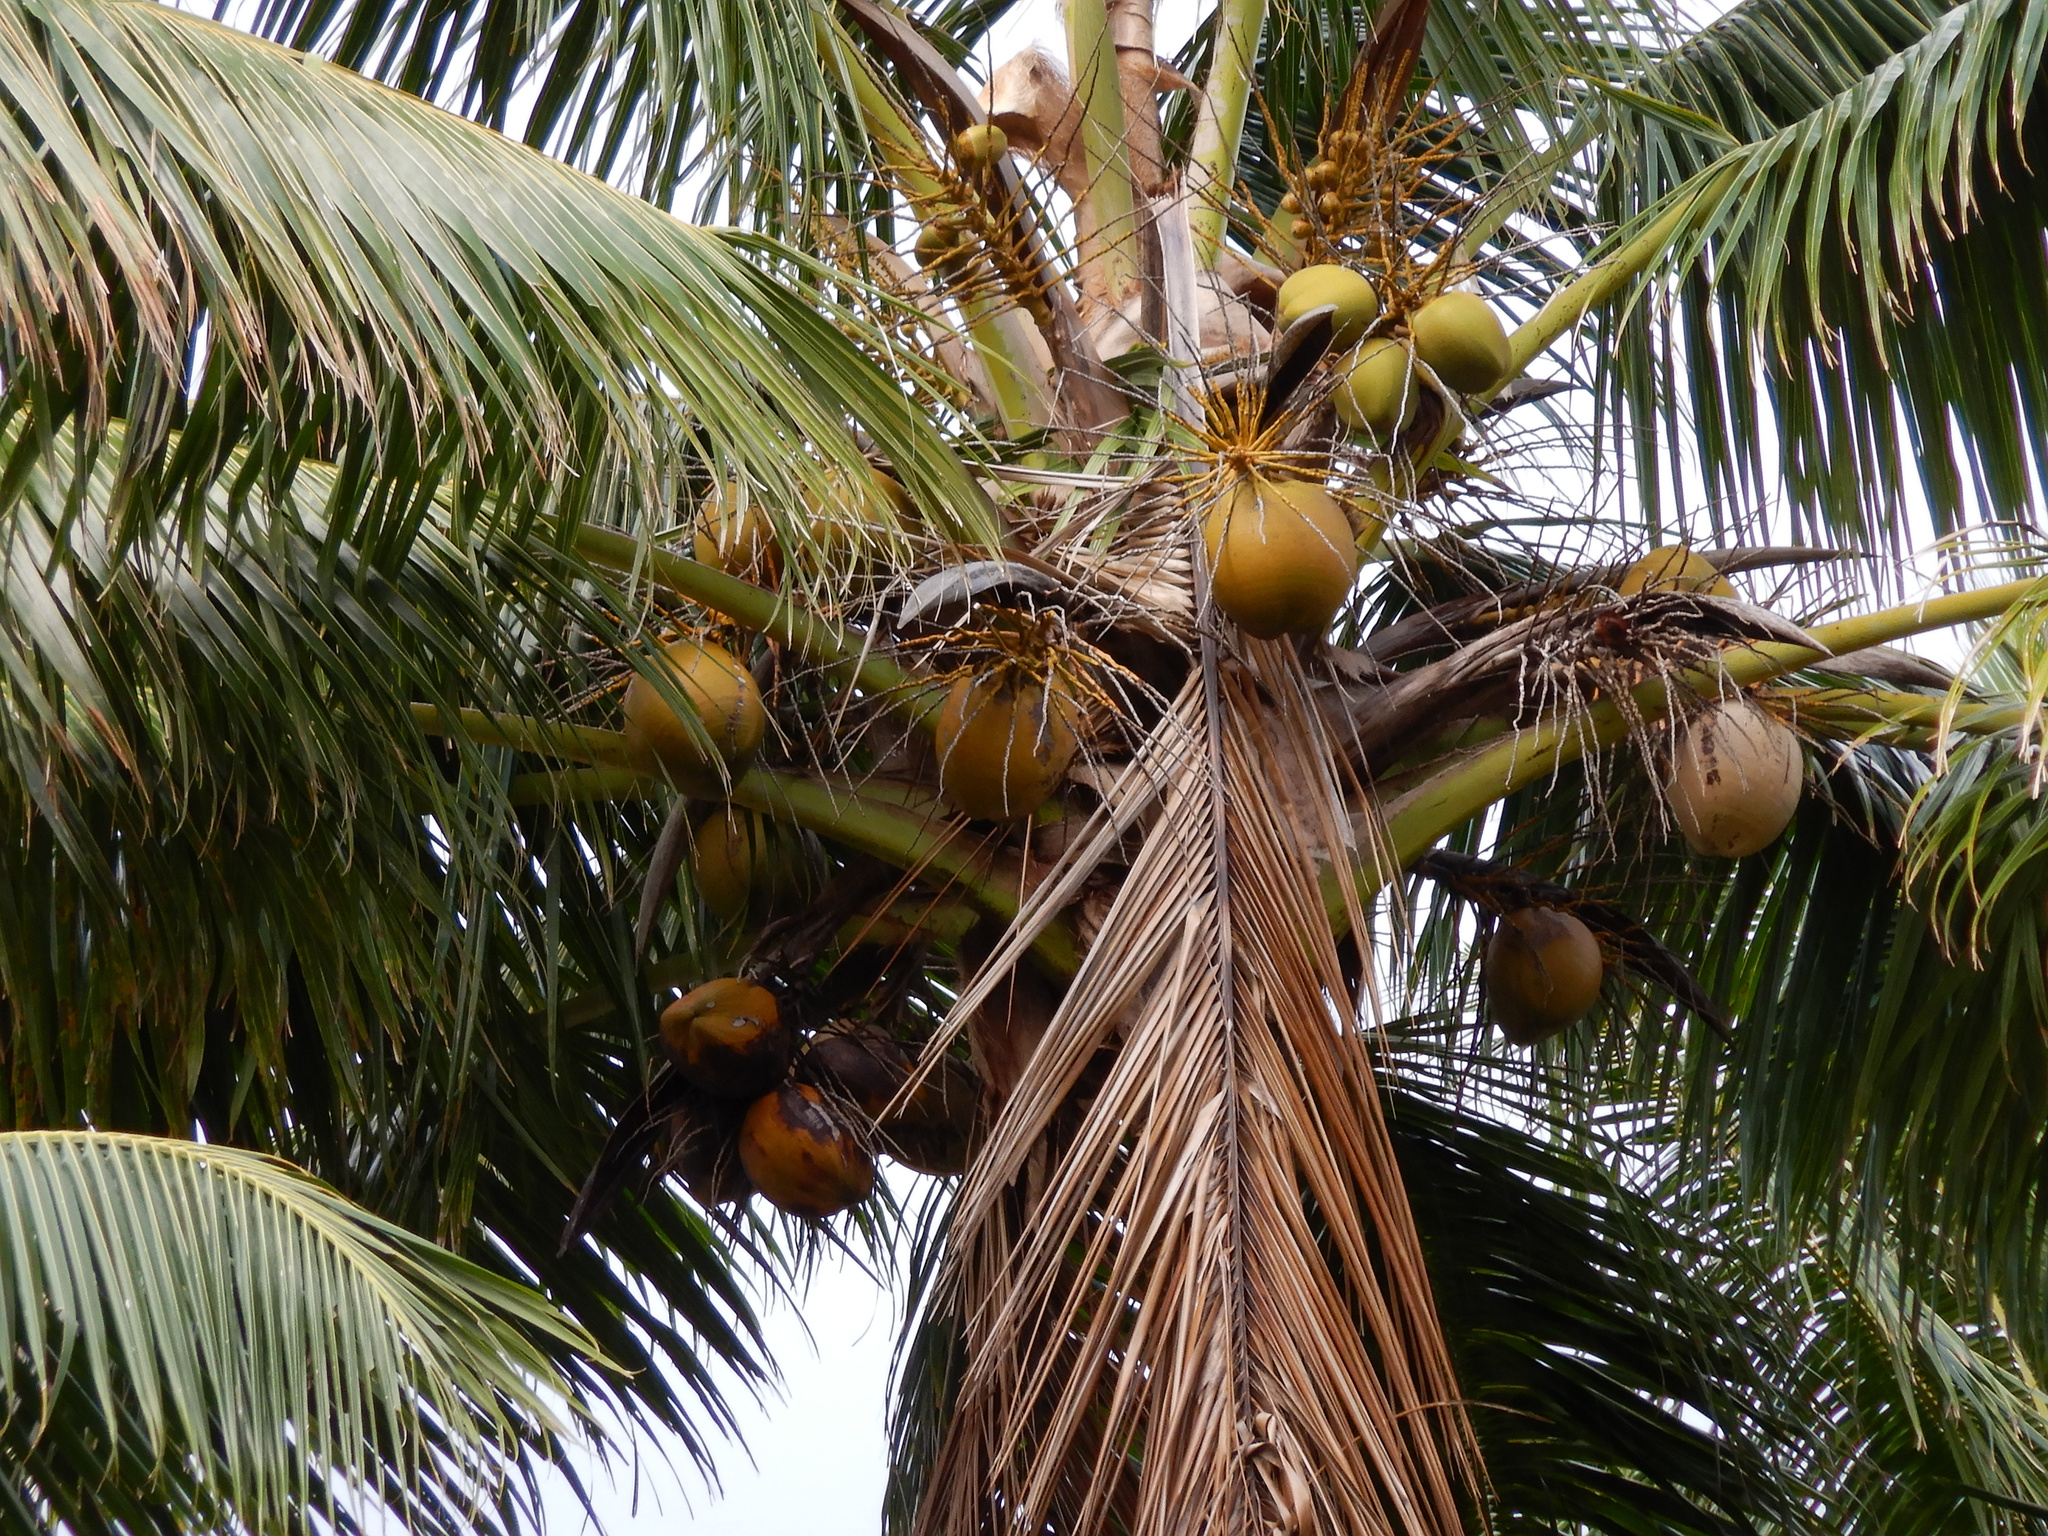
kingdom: Plantae
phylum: Tracheophyta
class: Liliopsida
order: Arecales
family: Arecaceae
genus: Cocos
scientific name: Cocos nucifera
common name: Coconut palm
